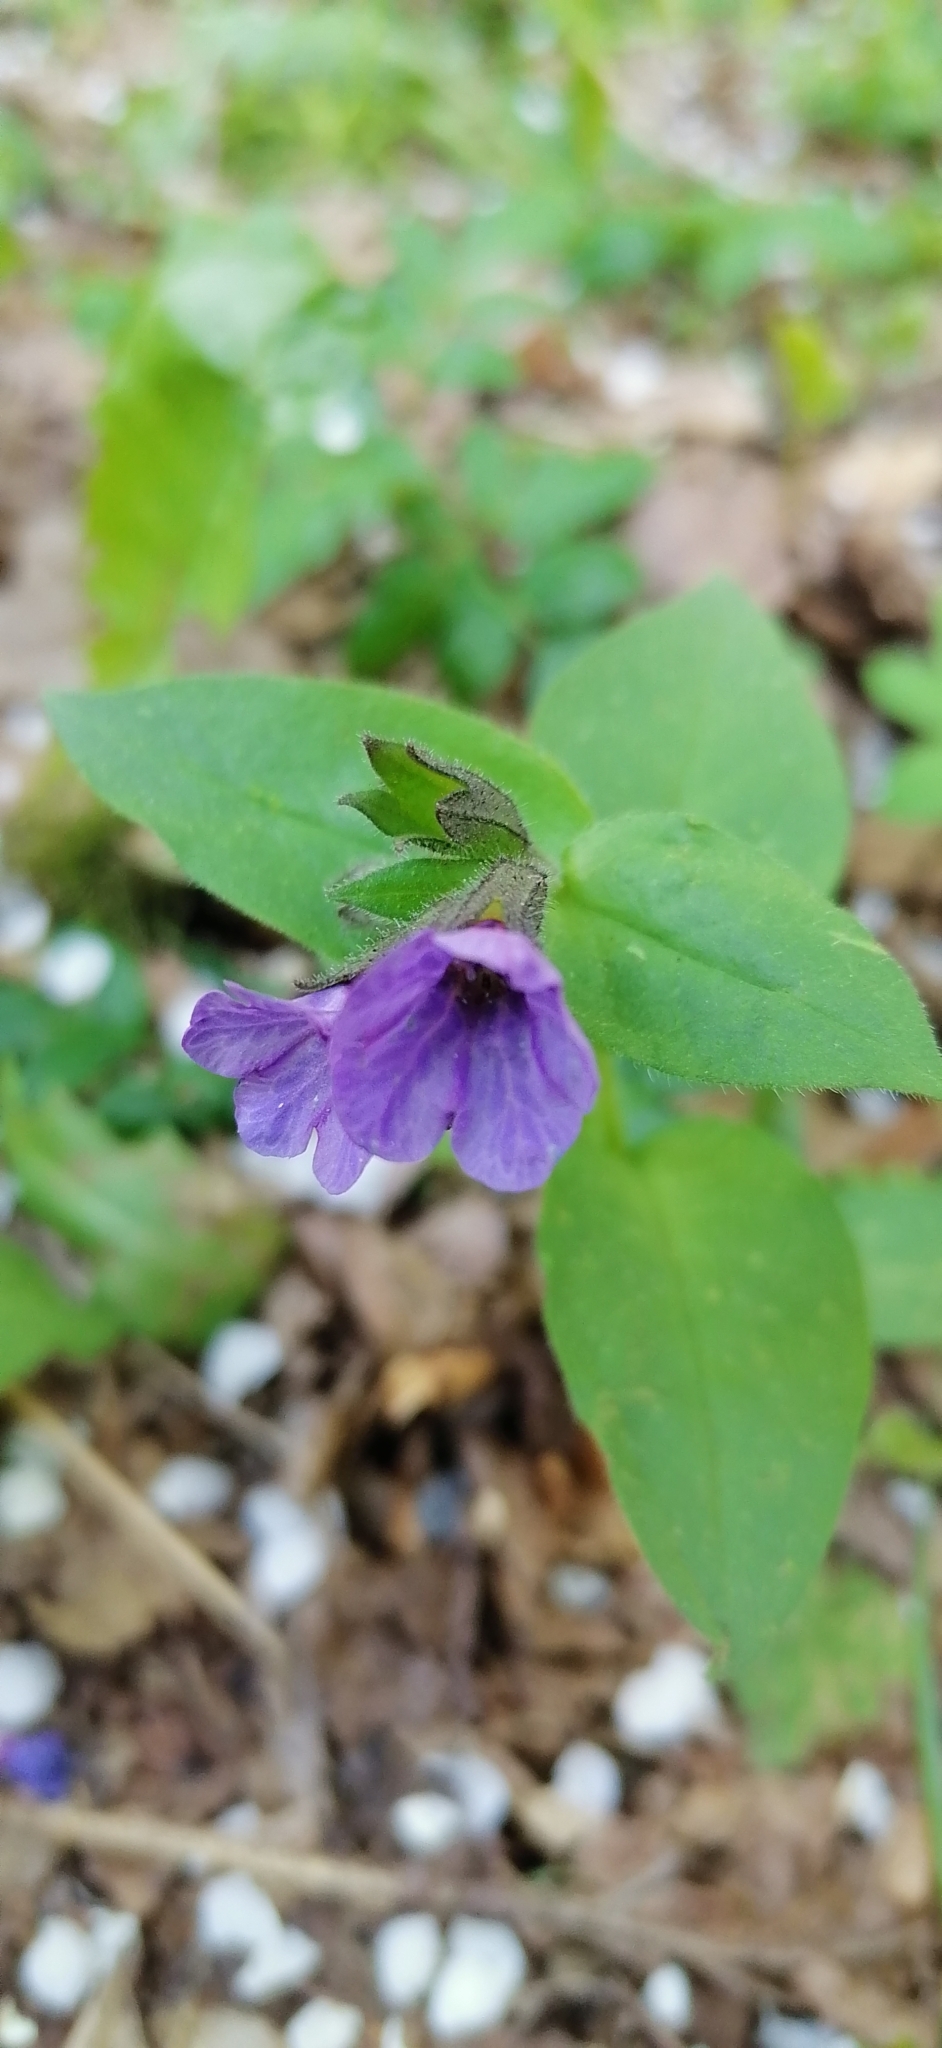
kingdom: Plantae
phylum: Tracheophyta
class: Magnoliopsida
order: Boraginales
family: Boraginaceae
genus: Pulmonaria
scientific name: Pulmonaria obscura
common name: Suffolk lungwort
